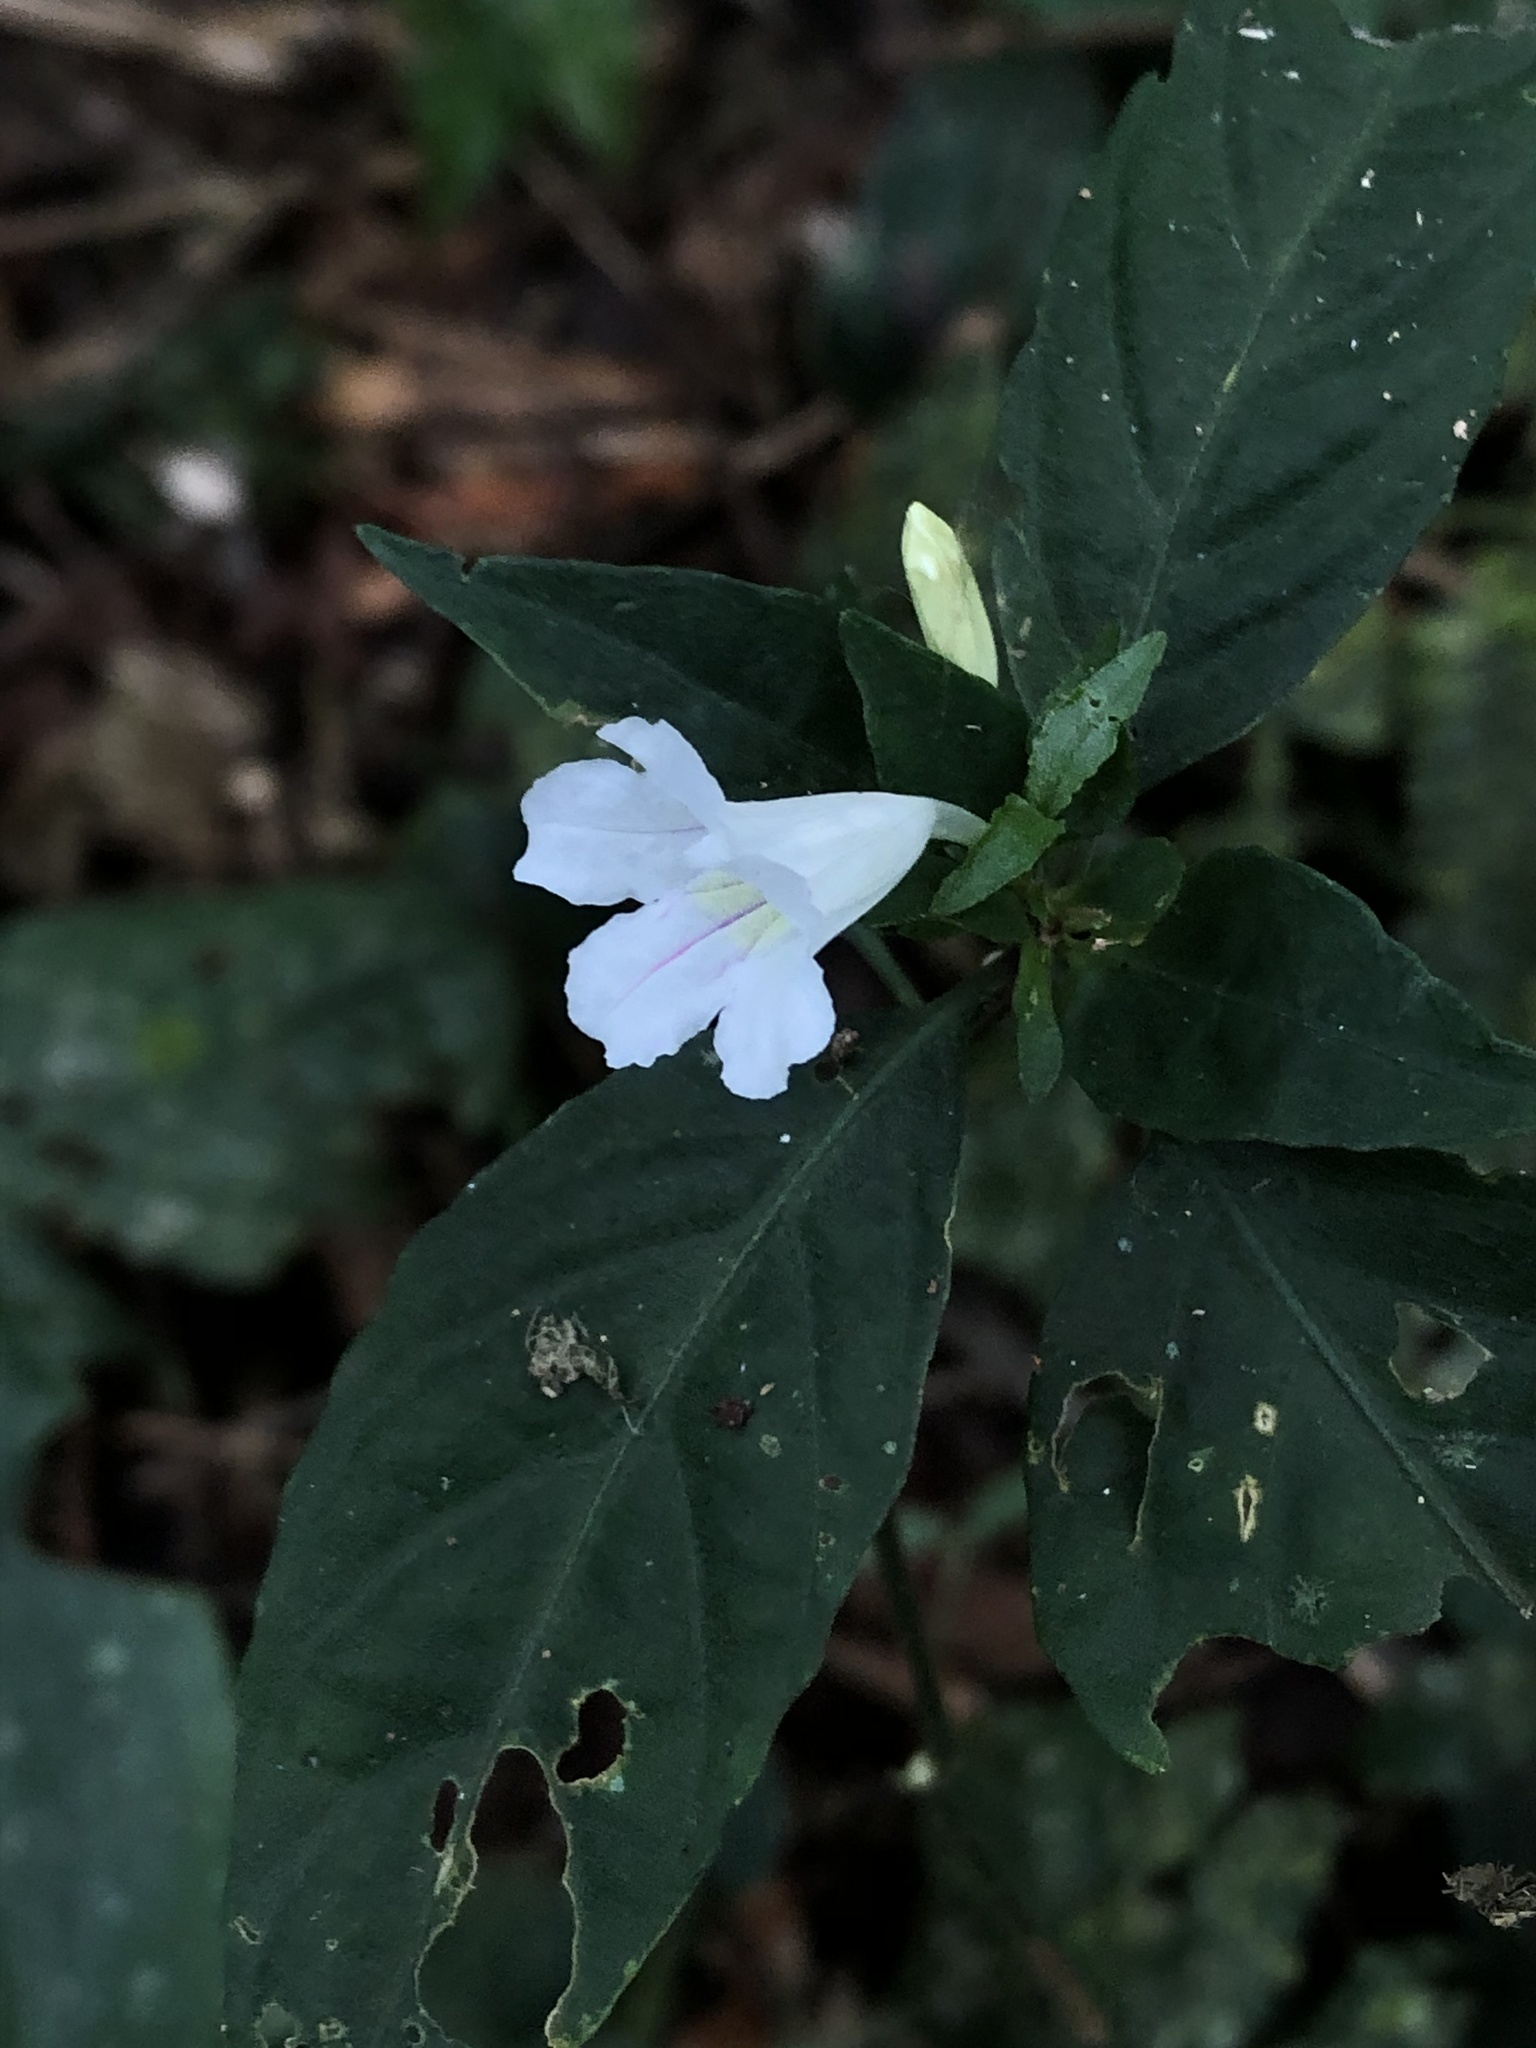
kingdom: Plantae
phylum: Tracheophyta
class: Magnoliopsida
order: Lamiales
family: Acanthaceae
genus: Ruellia
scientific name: Ruellia terminalis
